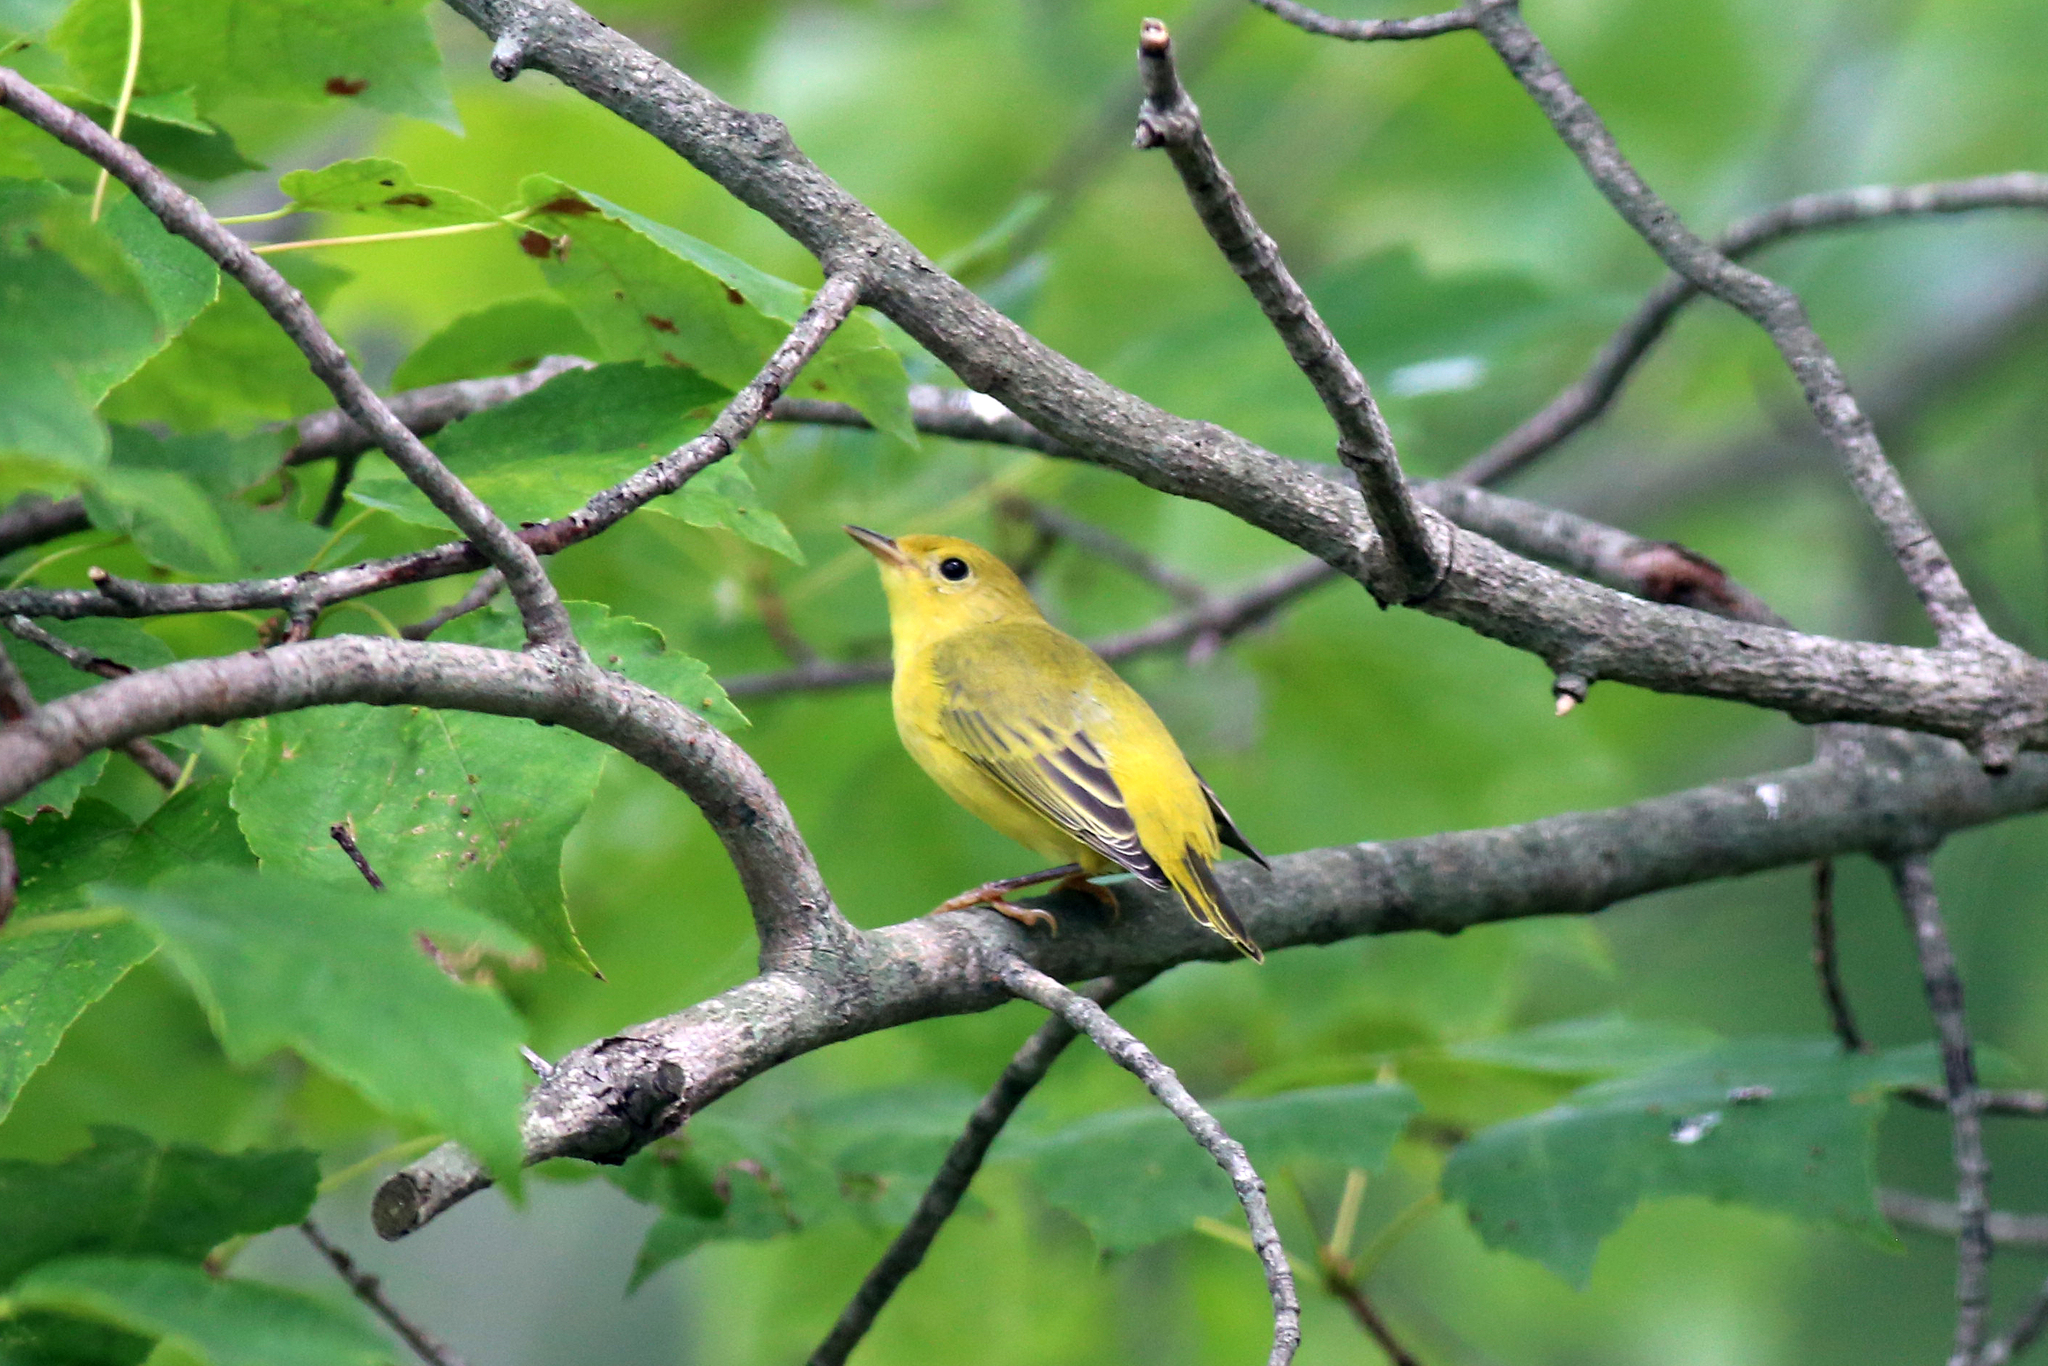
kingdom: Animalia
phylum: Chordata
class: Aves
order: Passeriformes
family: Parulidae
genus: Setophaga
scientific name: Setophaga petechia
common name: Yellow warbler
